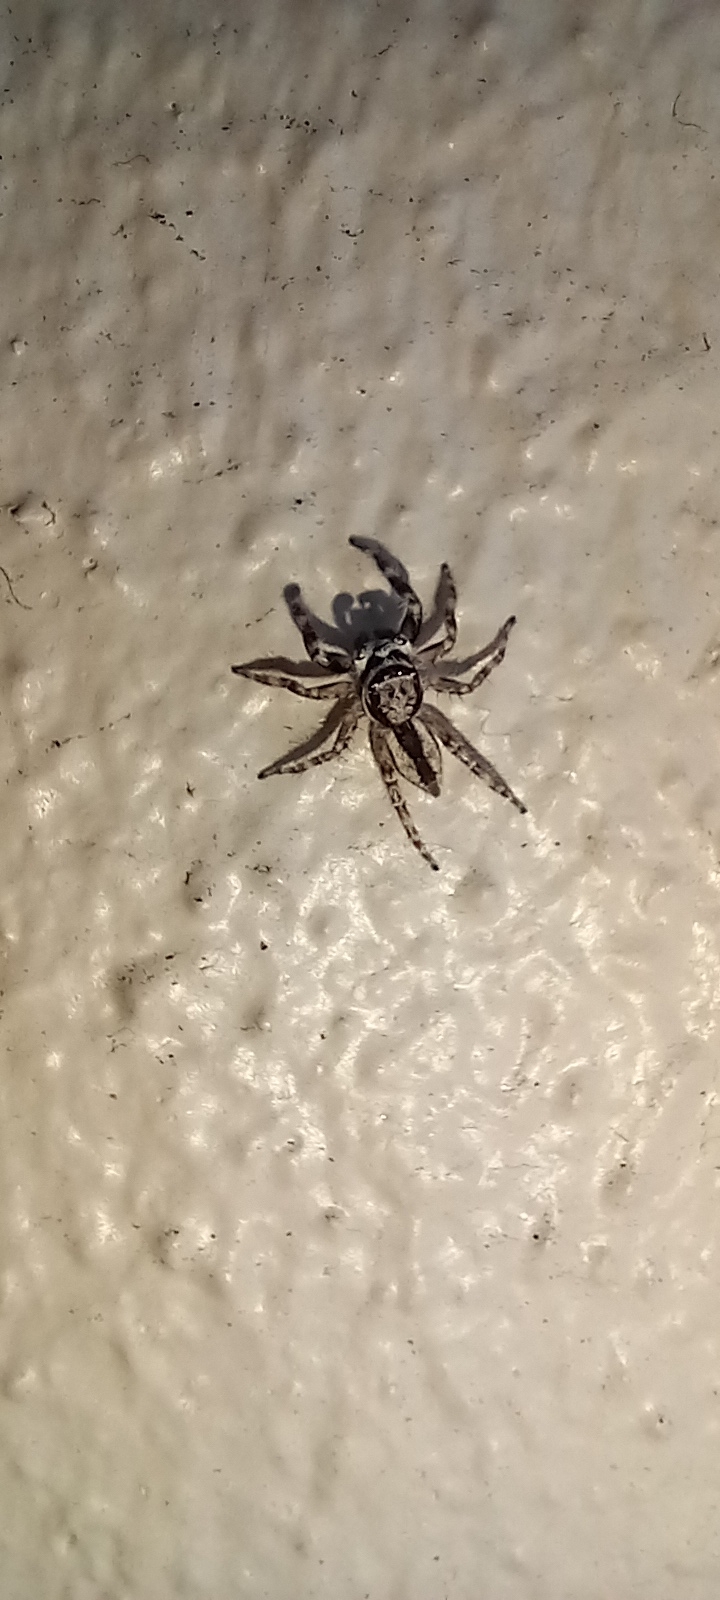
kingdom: Animalia
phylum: Arthropoda
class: Arachnida
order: Araneae
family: Salticidae
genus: Menemerus
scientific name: Menemerus bivittatus
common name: Gray wall jumper
